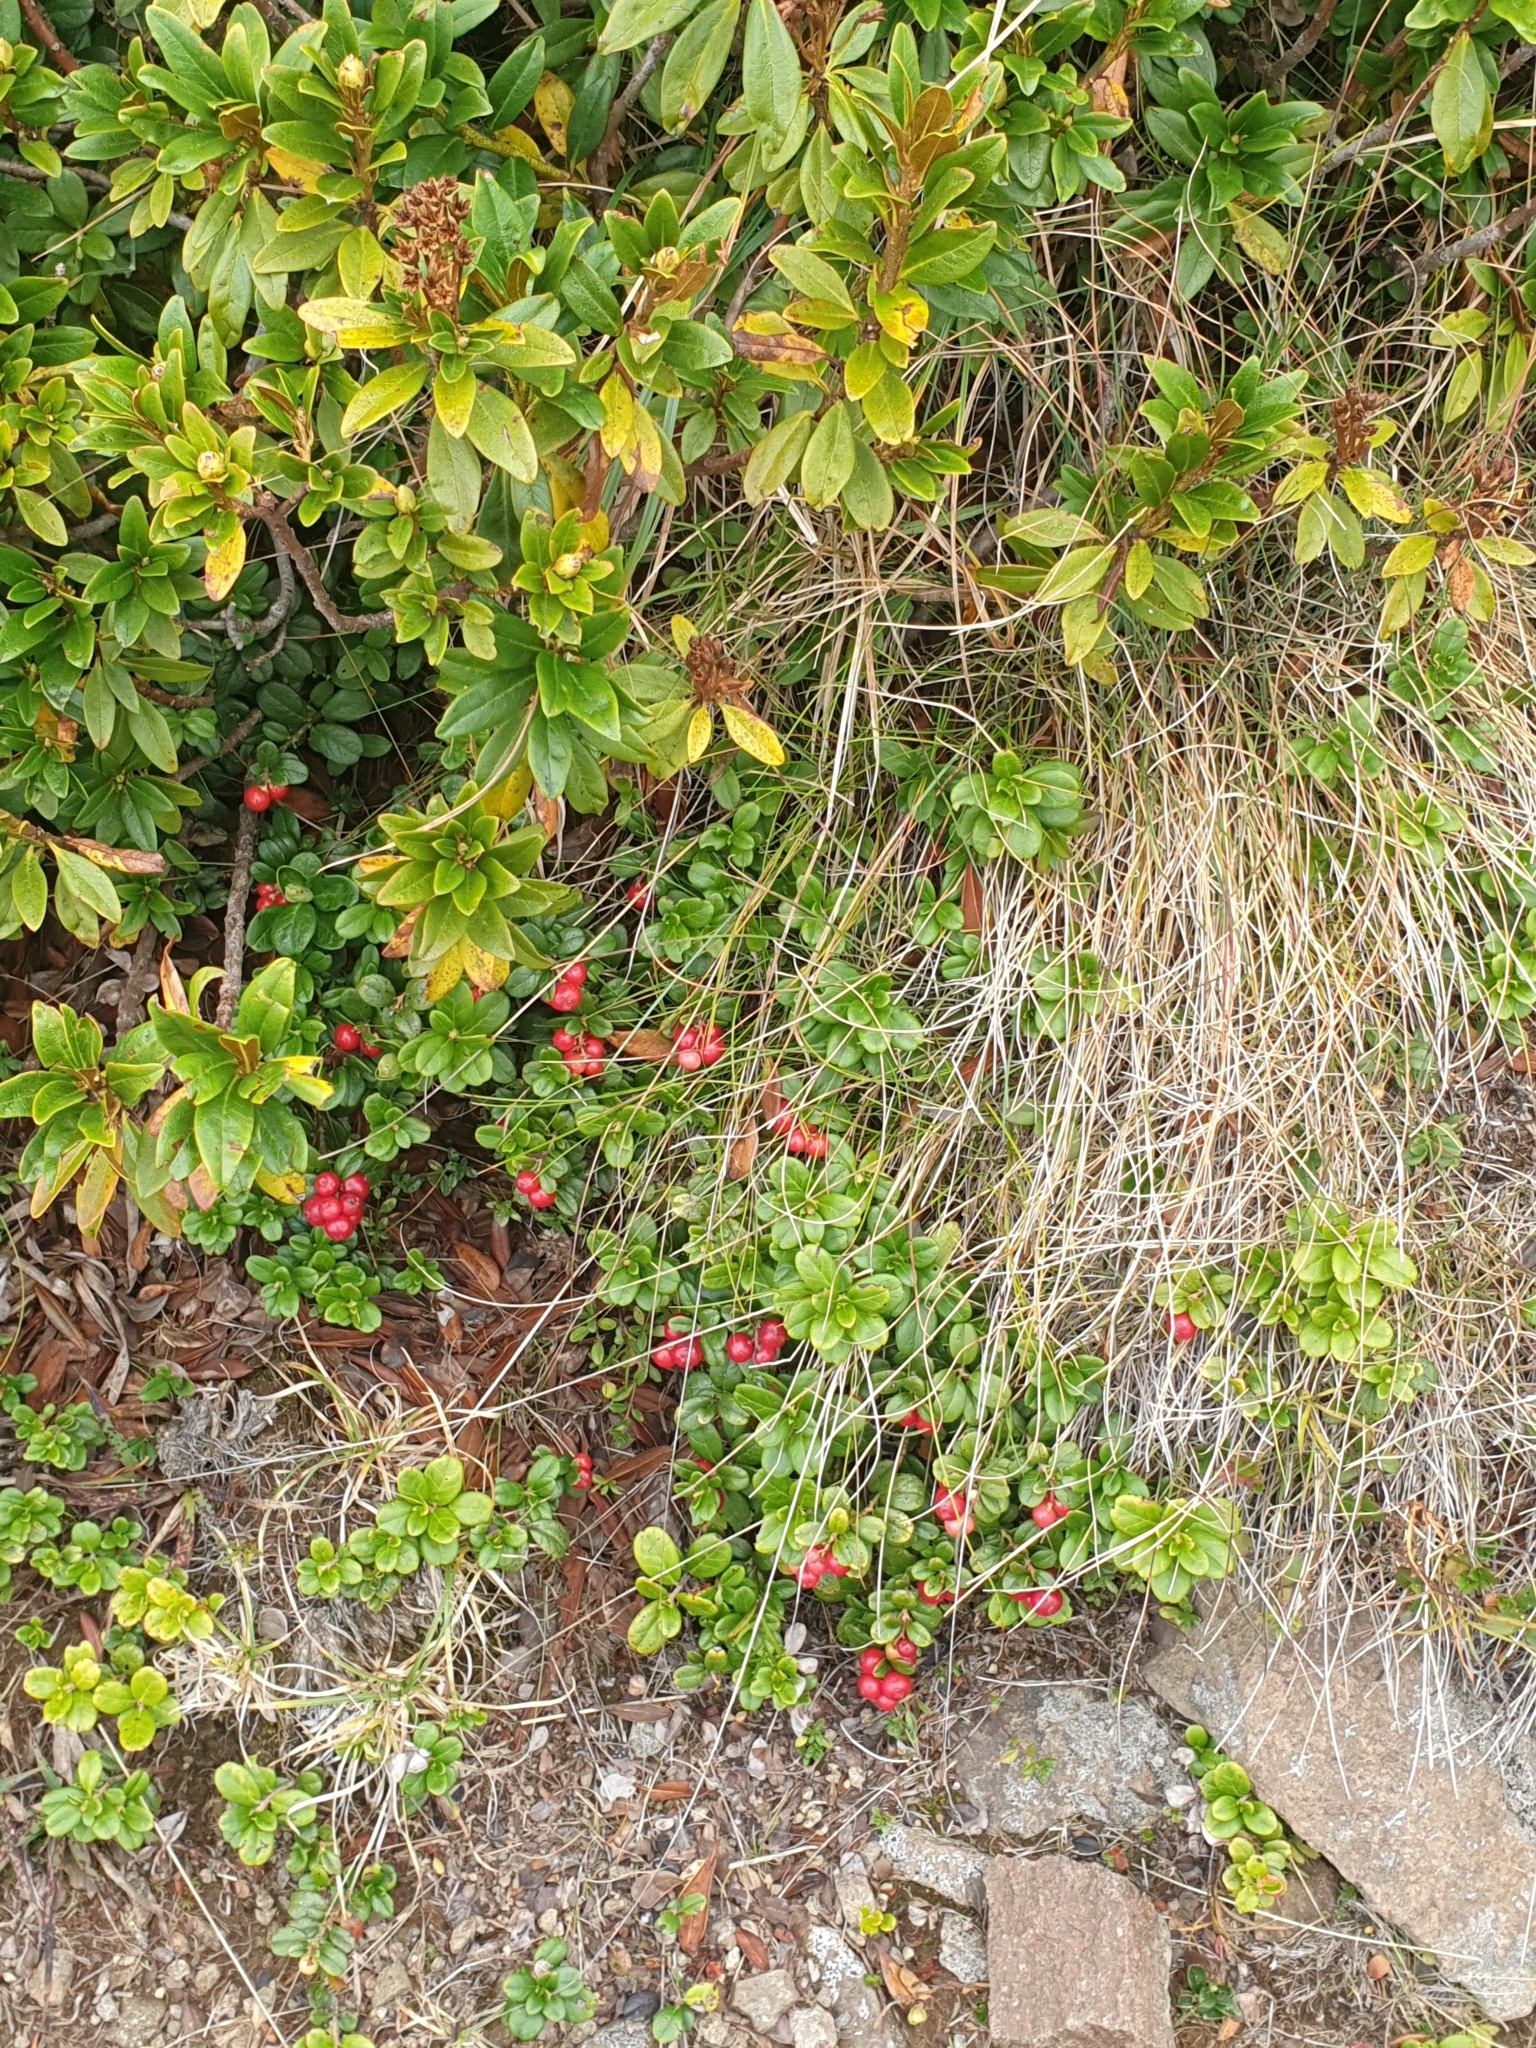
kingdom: Plantae
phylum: Tracheophyta
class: Magnoliopsida
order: Ericales
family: Ericaceae
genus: Vaccinium
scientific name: Vaccinium vitis-idaea
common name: Cowberry
